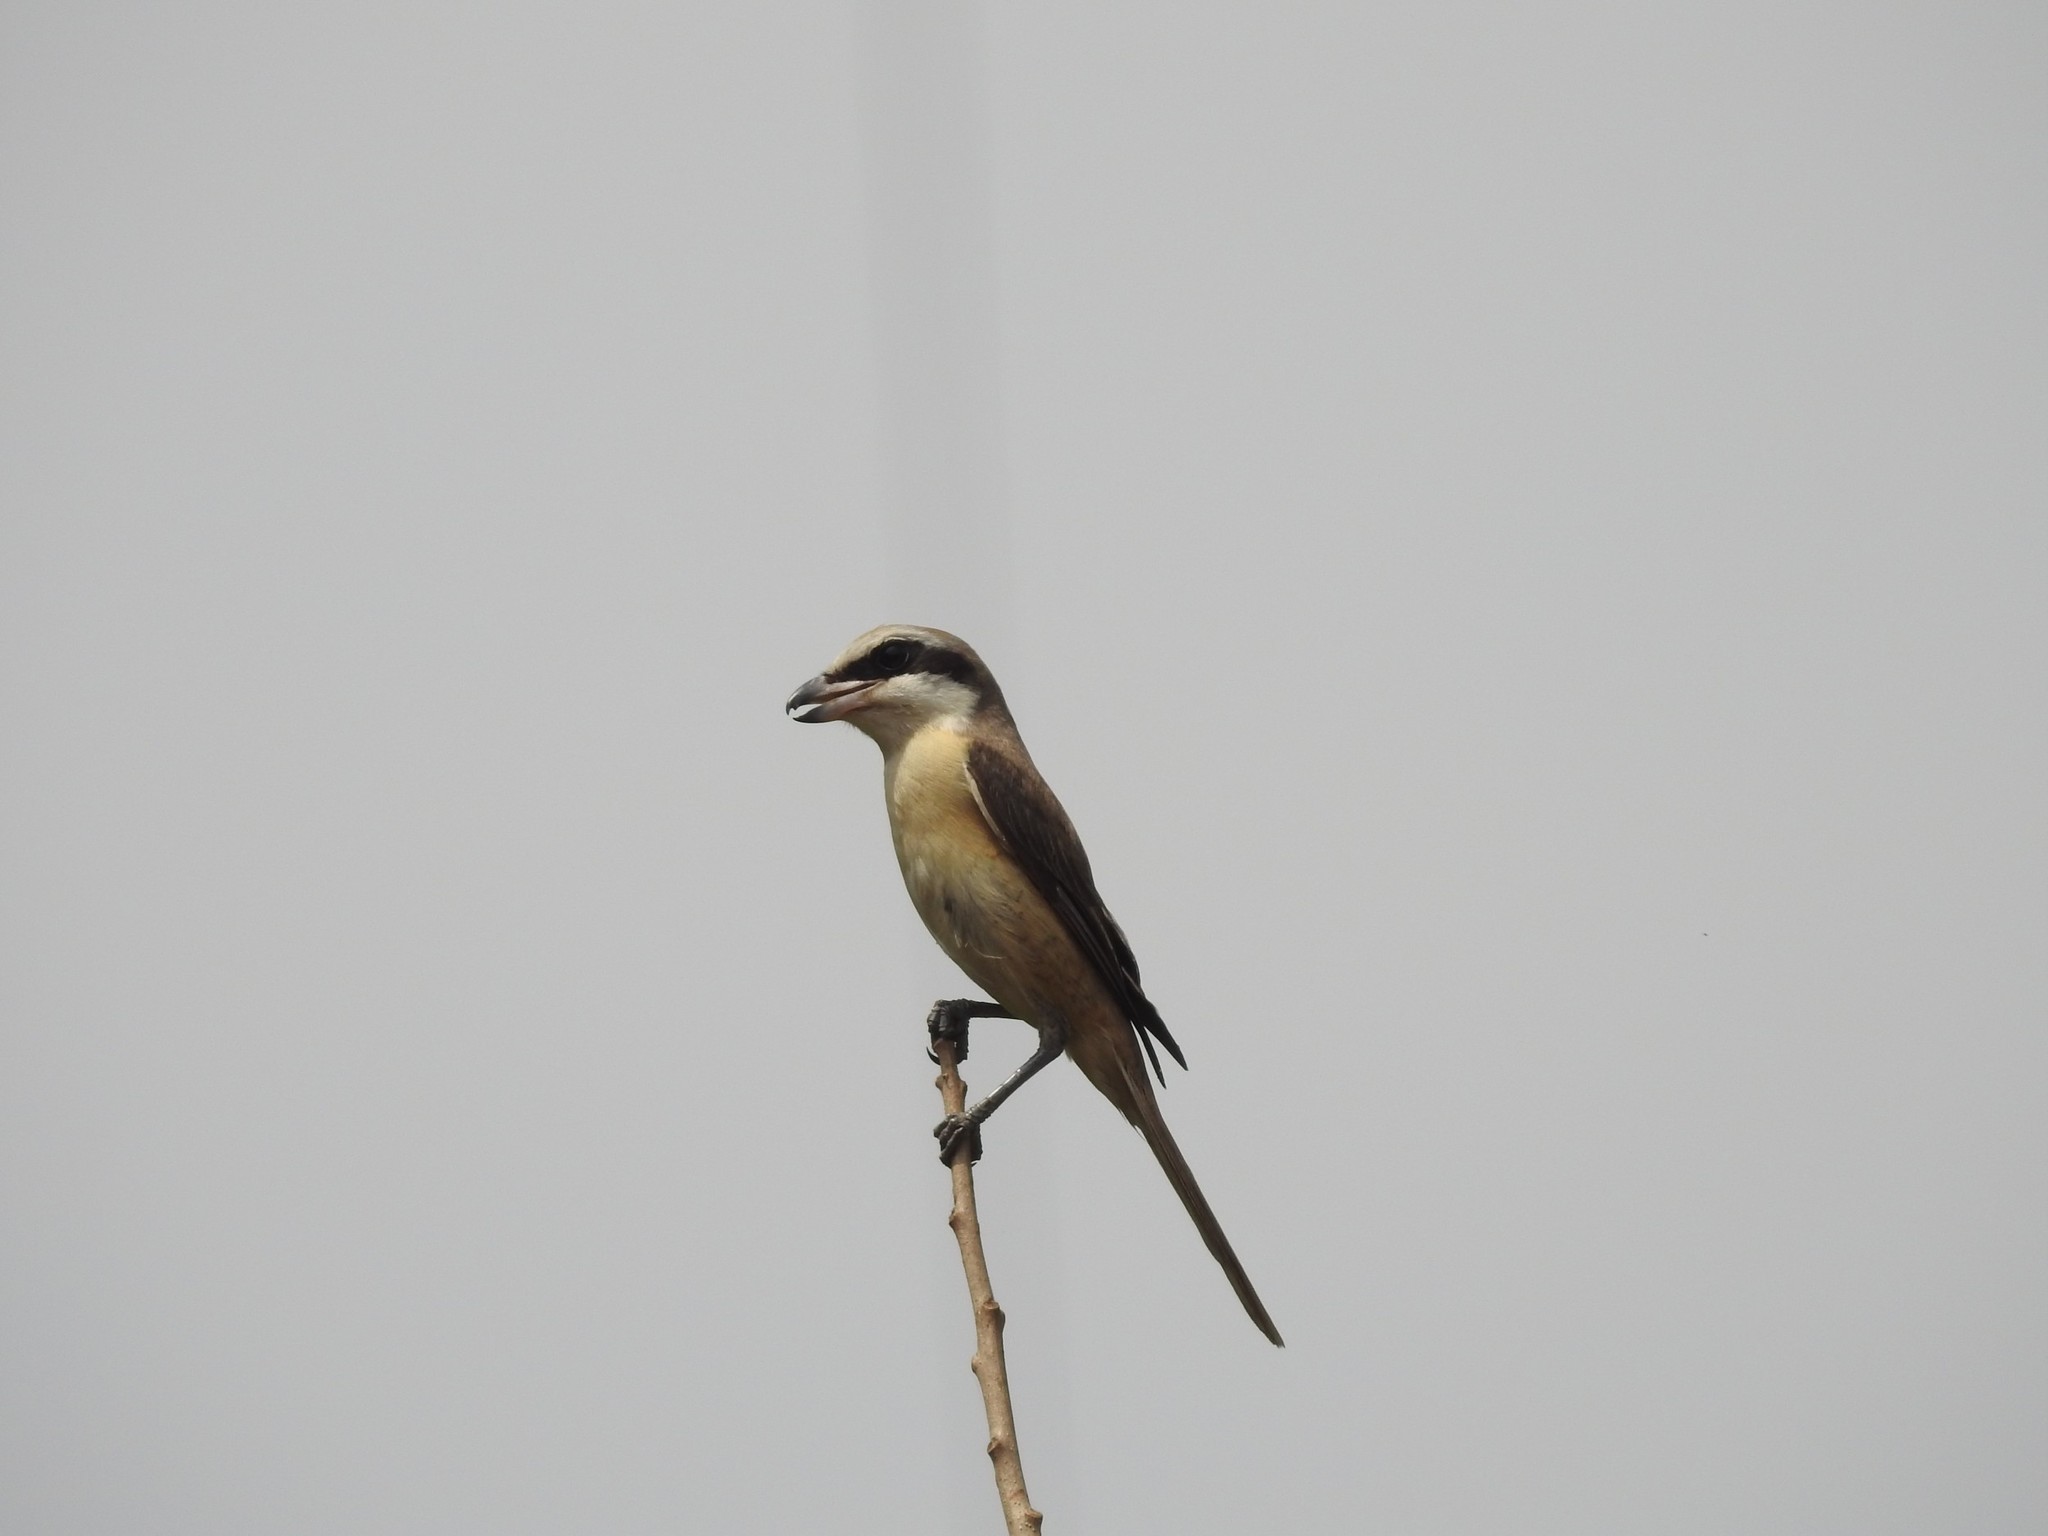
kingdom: Animalia
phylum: Chordata
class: Aves
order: Passeriformes
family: Laniidae
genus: Lanius
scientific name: Lanius cristatus
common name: Brown shrike
